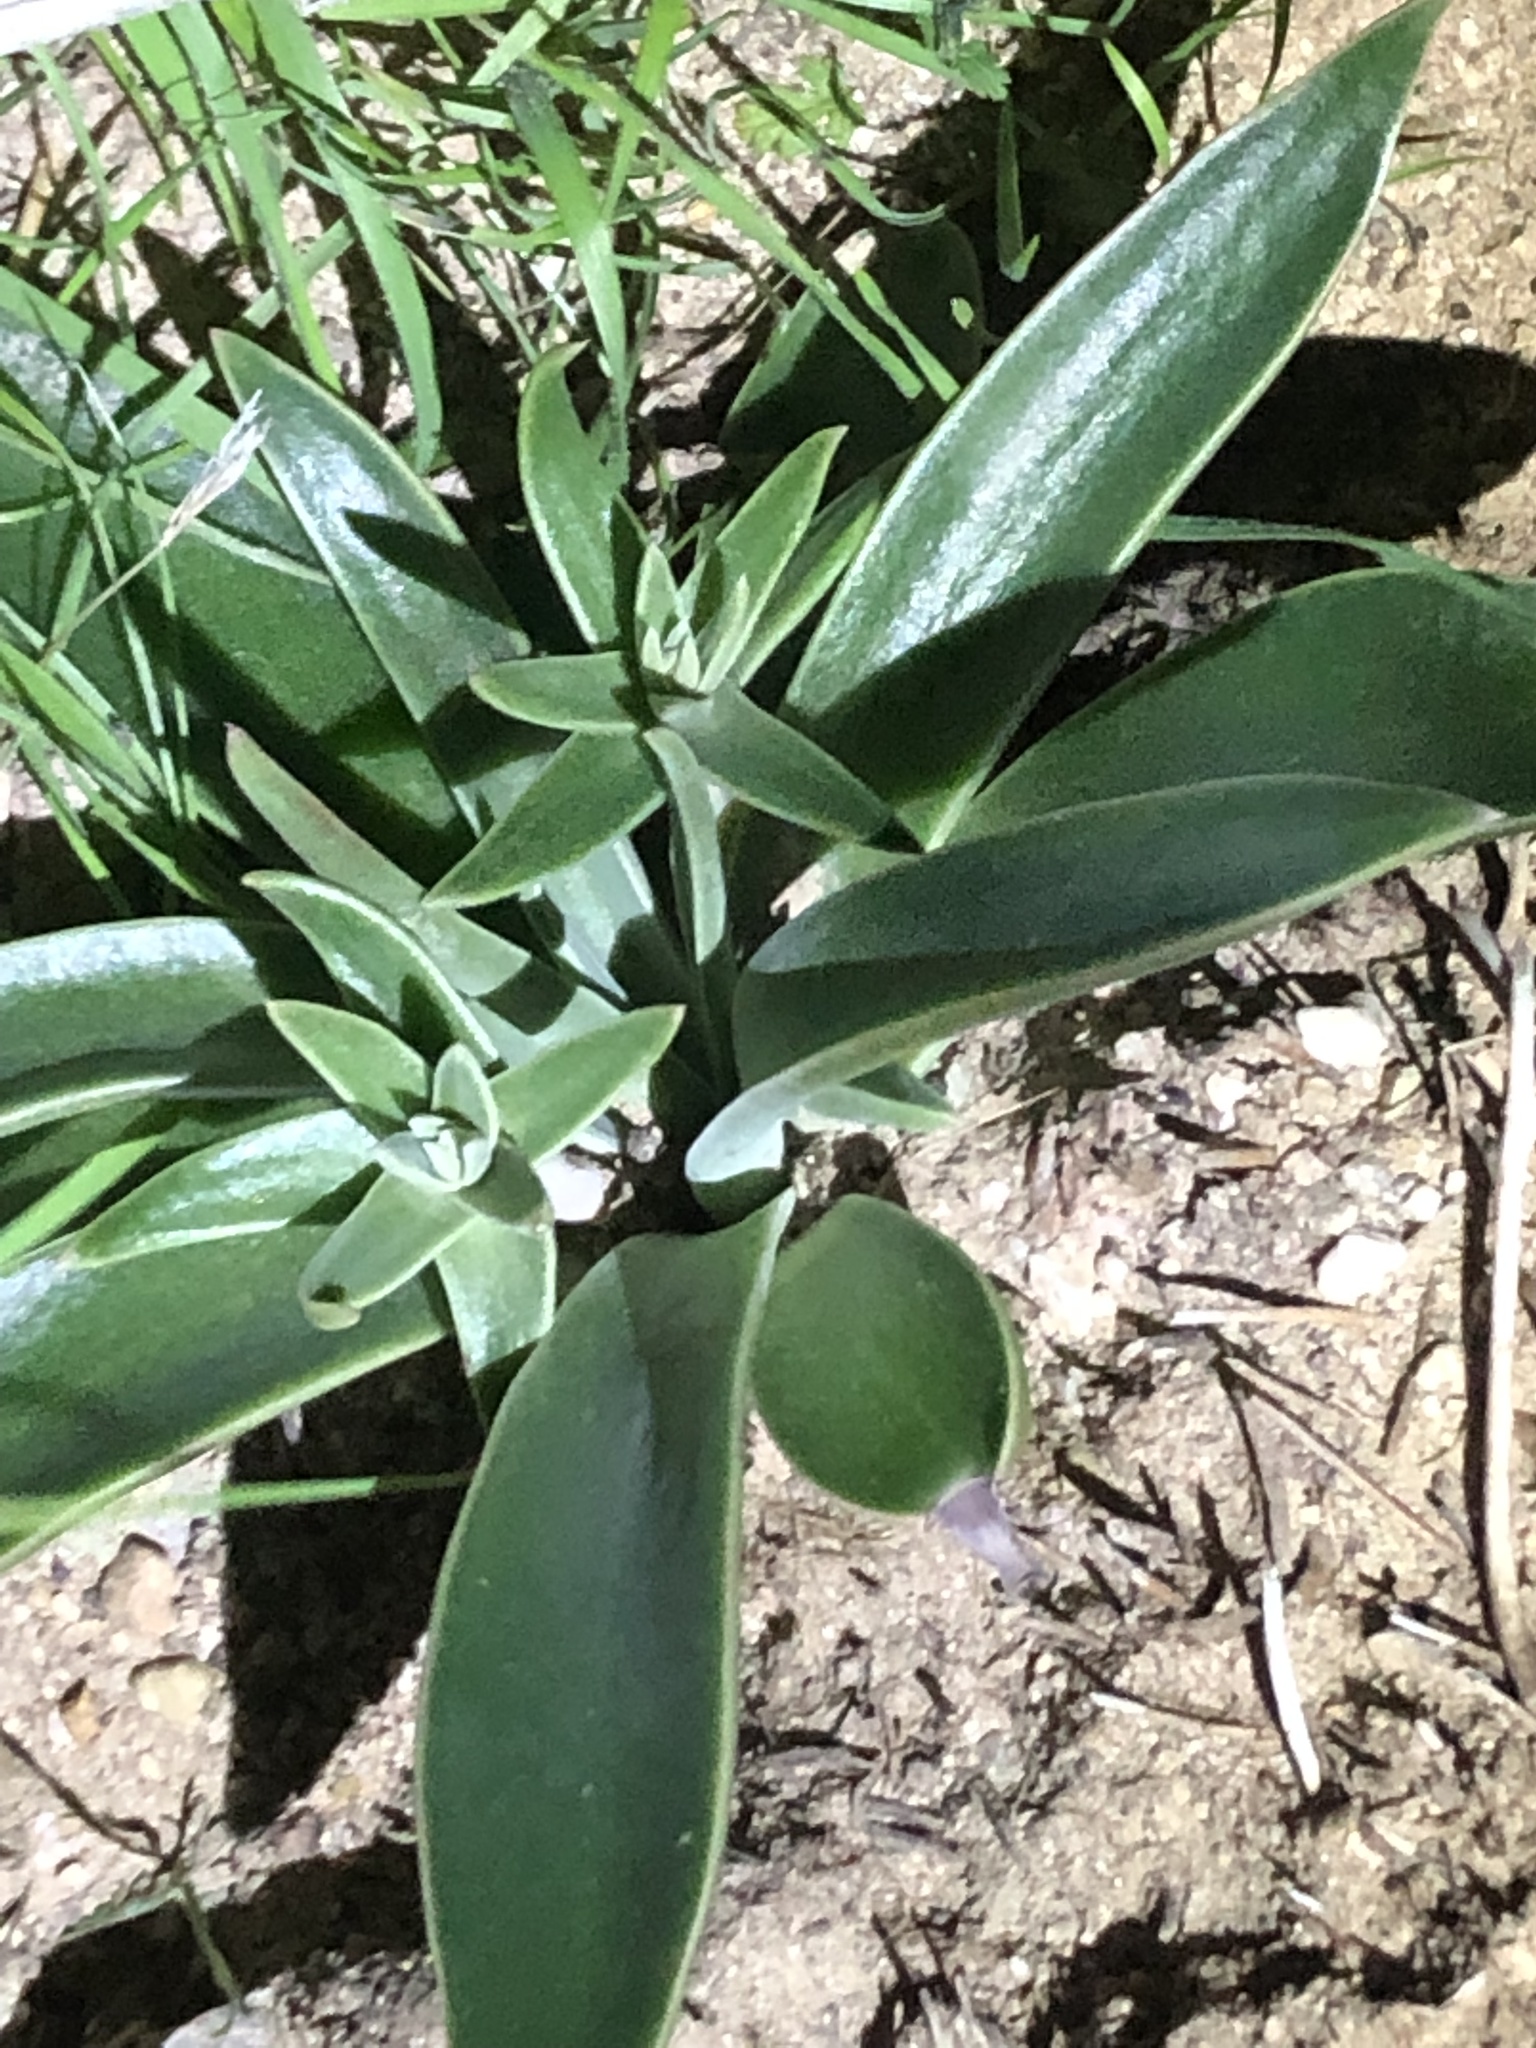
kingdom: Plantae
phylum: Tracheophyta
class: Magnoliopsida
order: Saxifragales
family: Crassulaceae
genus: Dudleya
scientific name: Dudleya lanceolata
